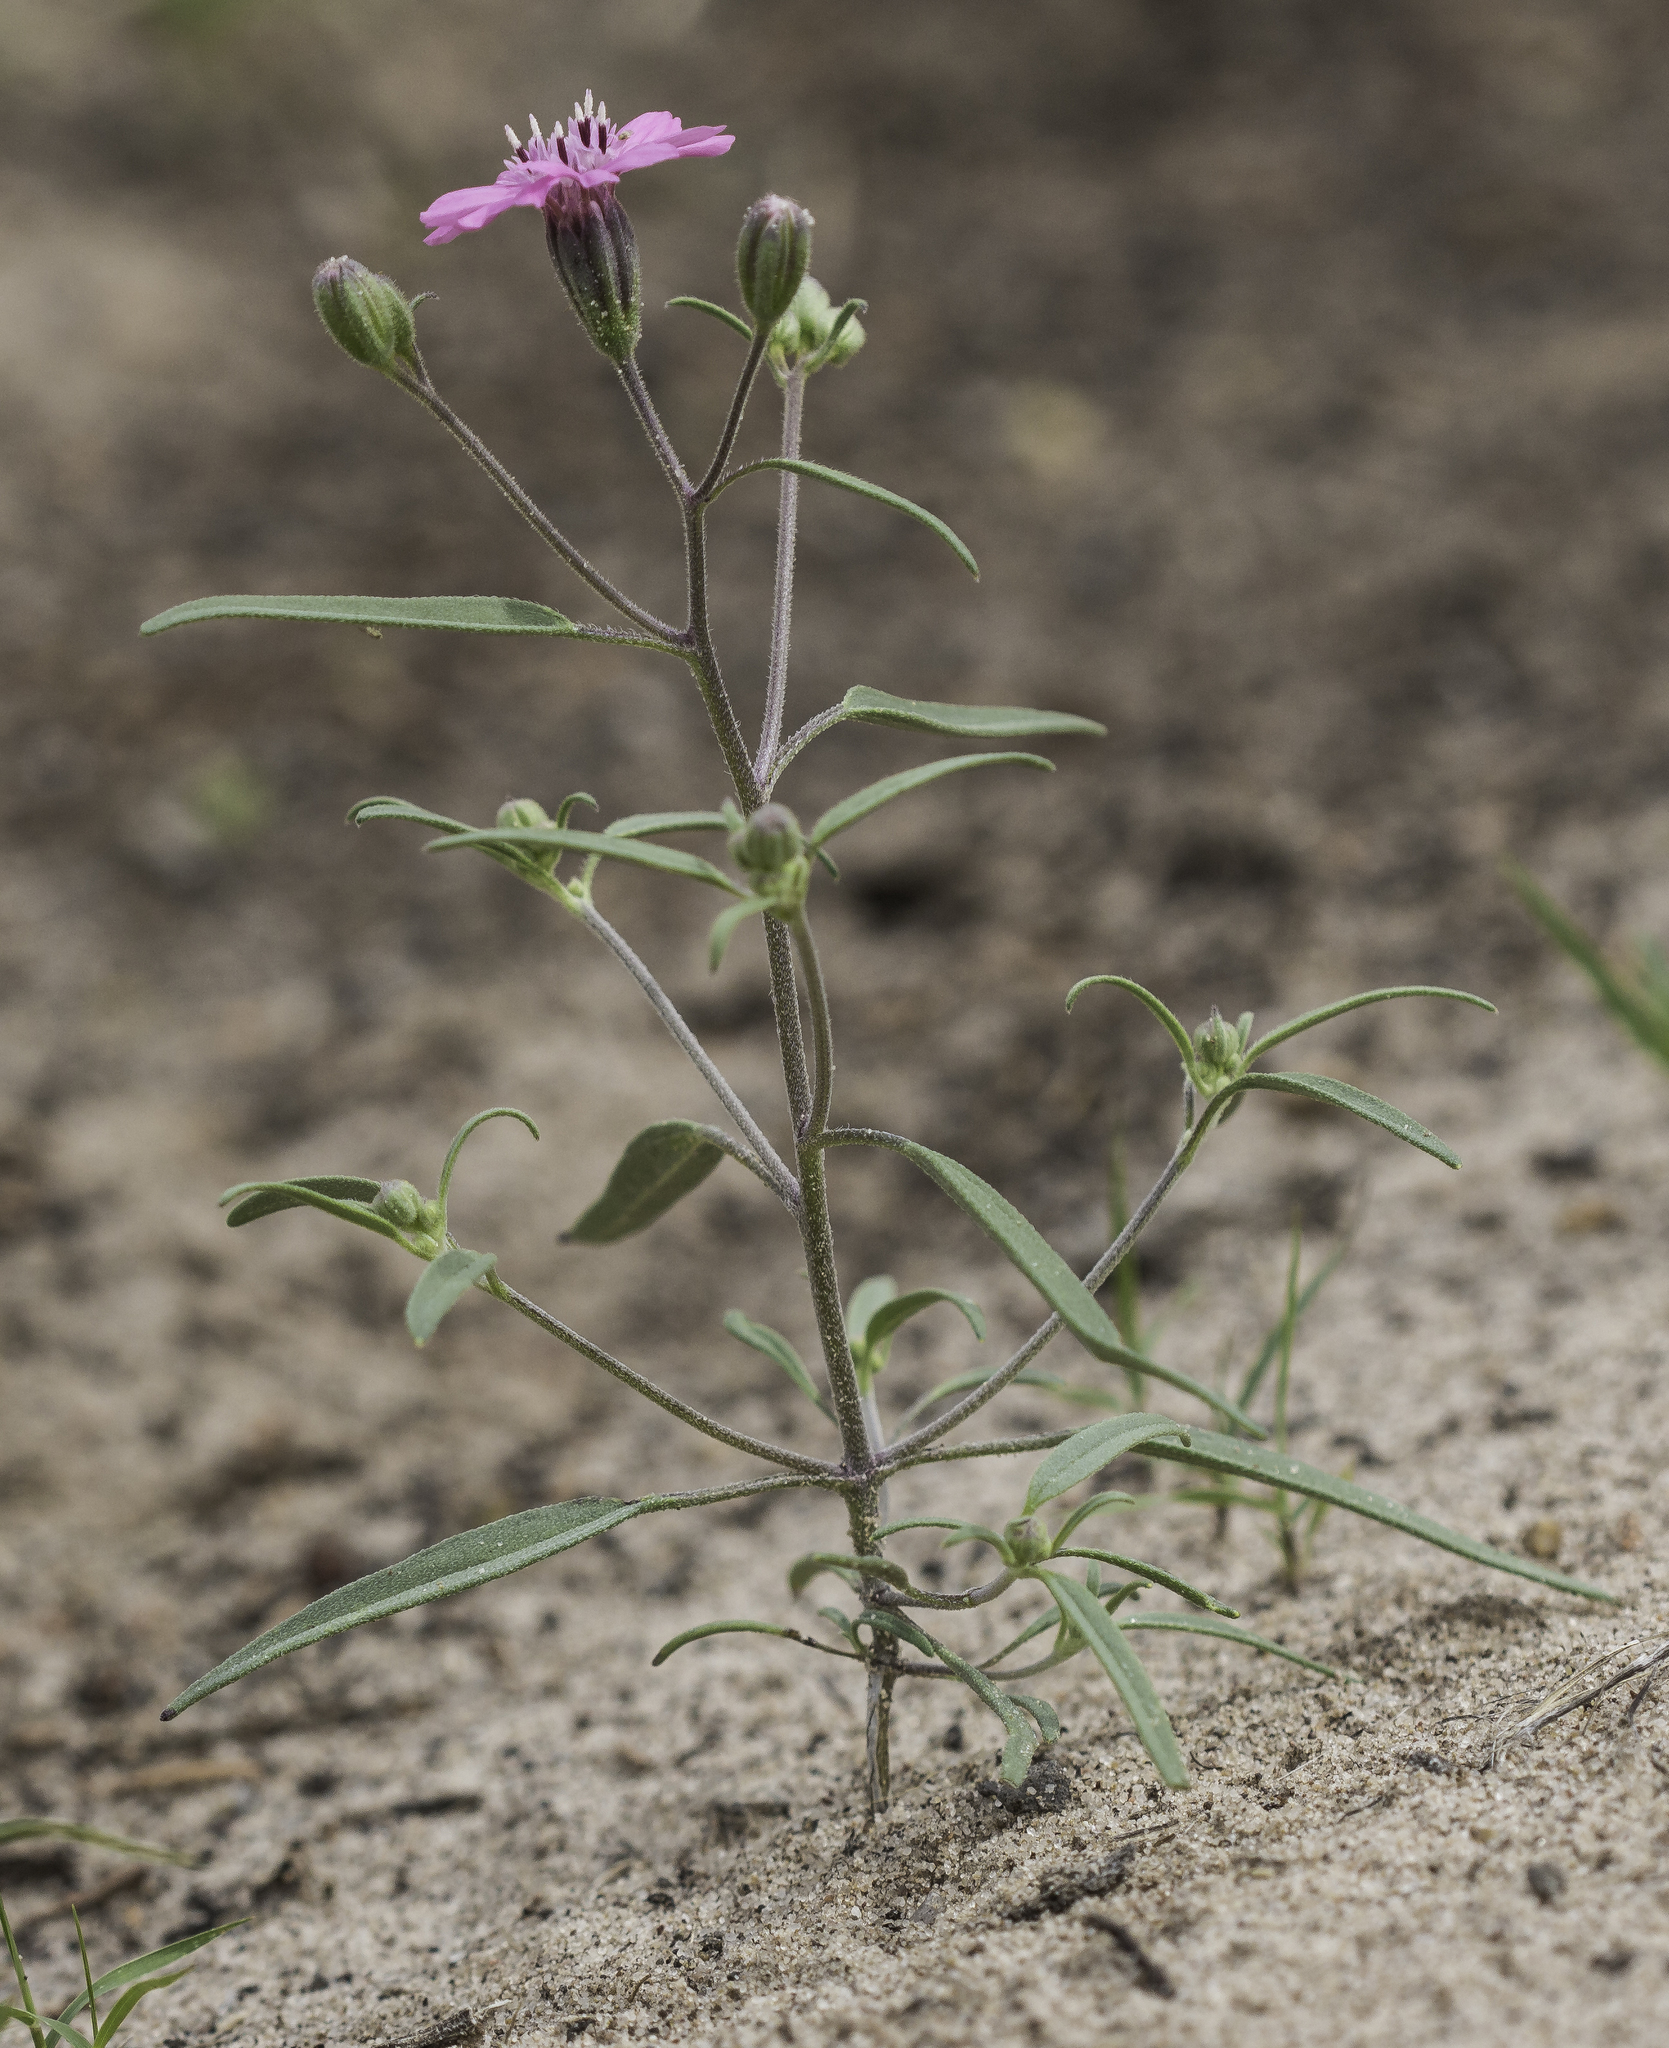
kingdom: Plantae
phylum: Tracheophyta
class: Magnoliopsida
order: Asterales
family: Asteraceae
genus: Palafoxia
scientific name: Palafoxia sphacelata
